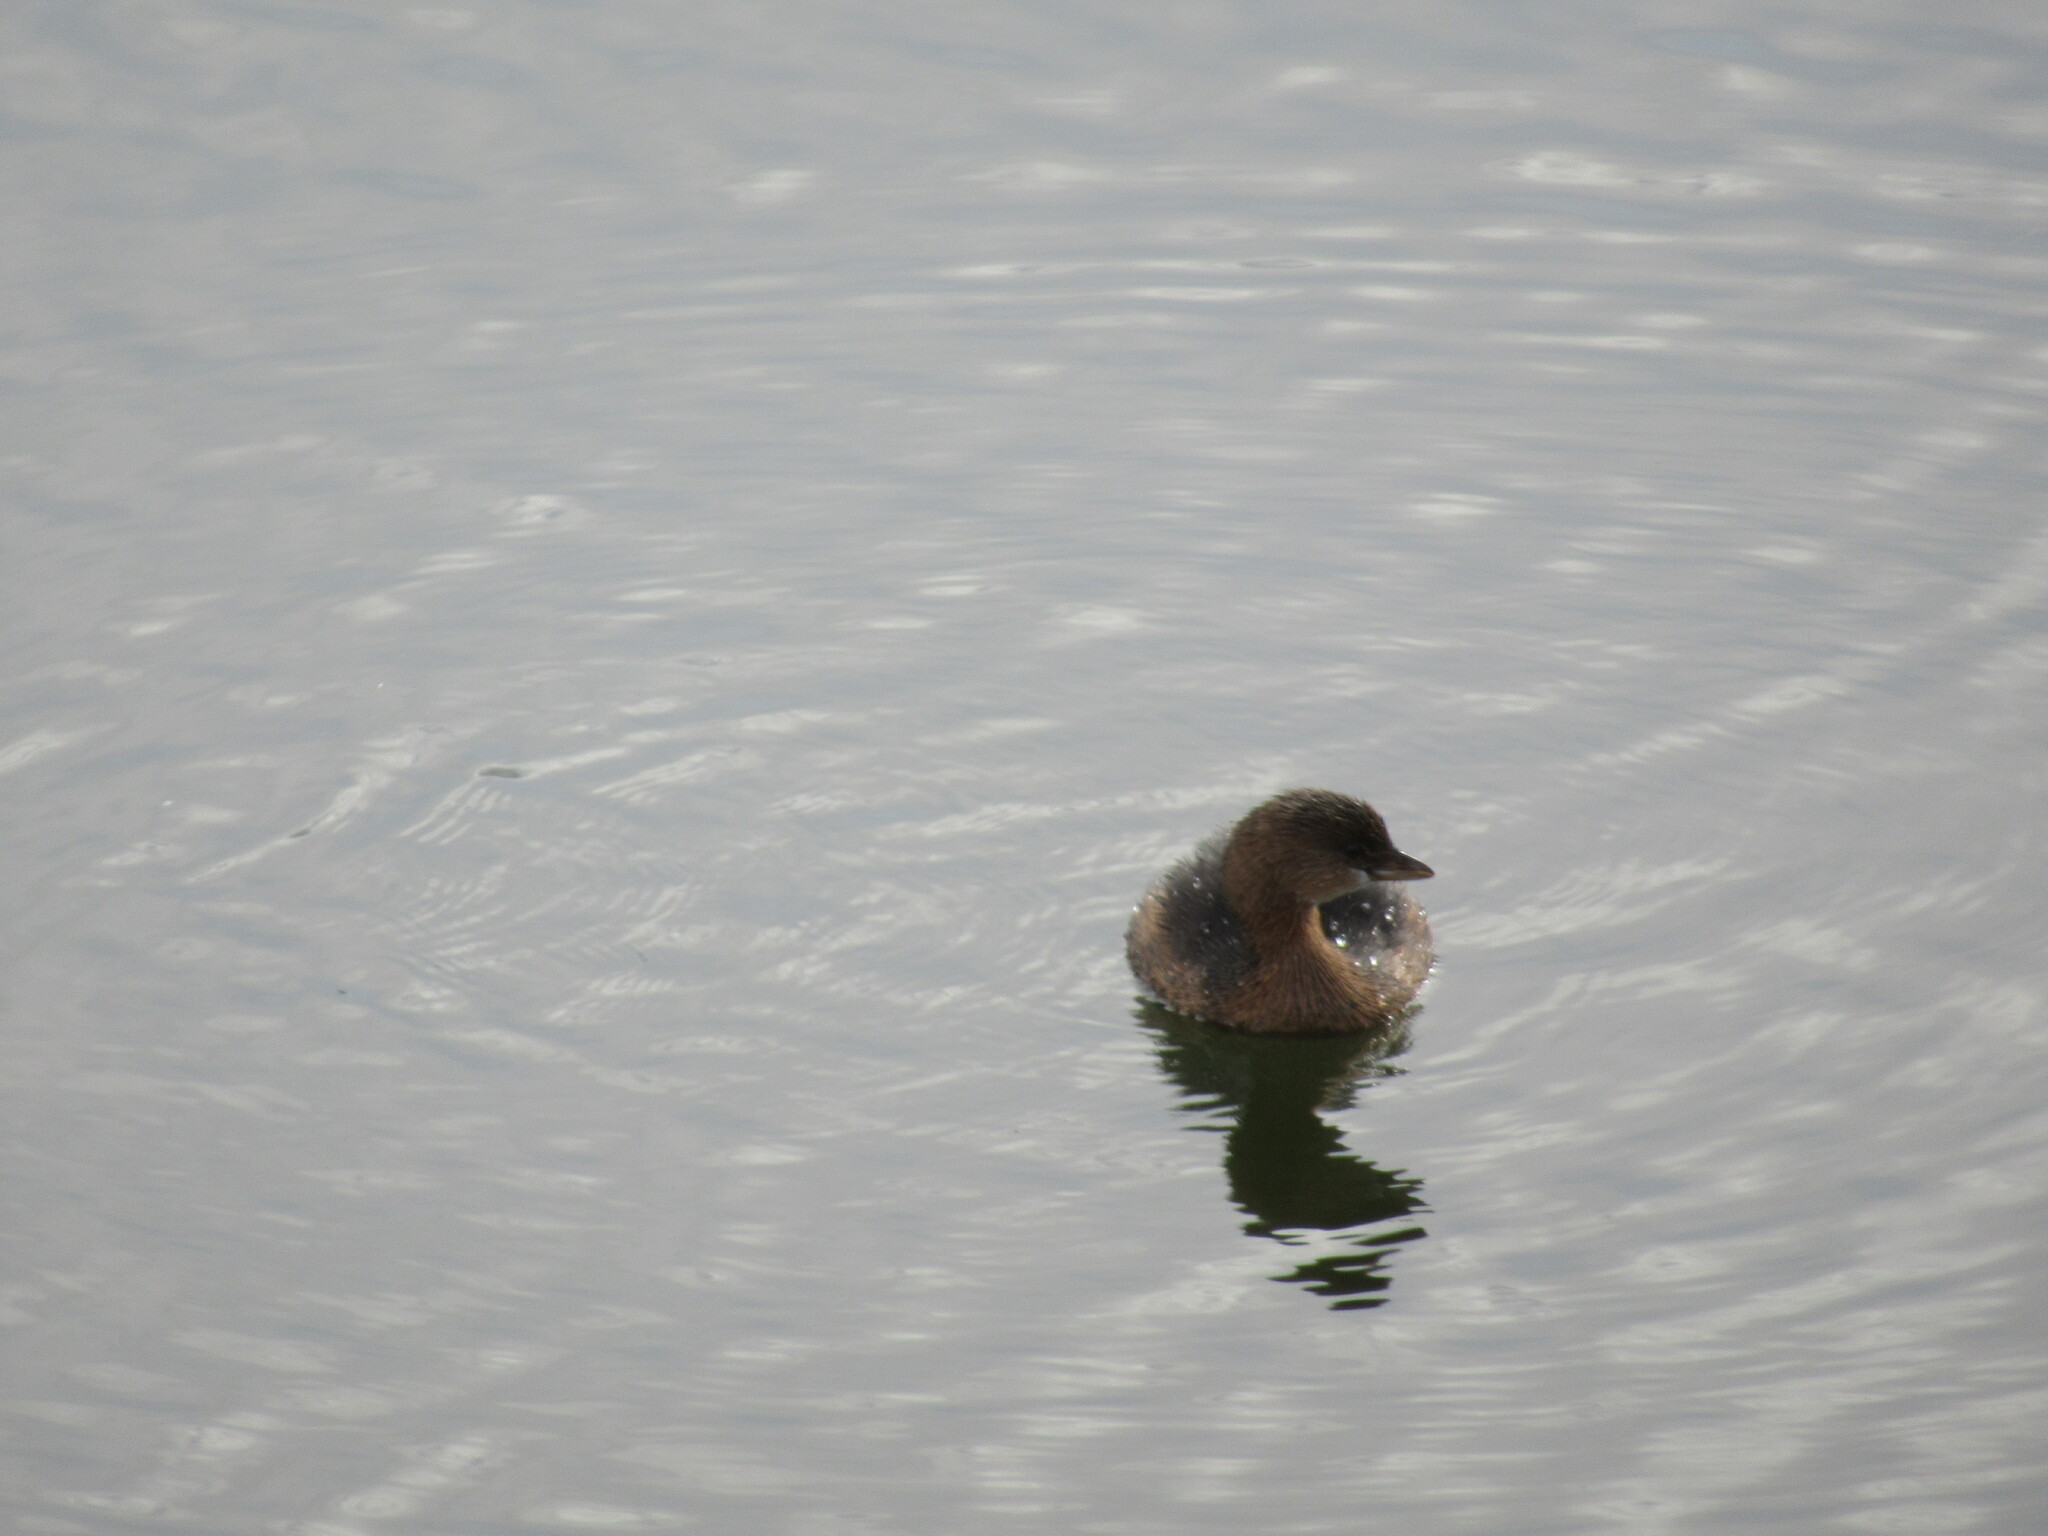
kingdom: Animalia
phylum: Chordata
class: Aves
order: Podicipediformes
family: Podicipedidae
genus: Podilymbus
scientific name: Podilymbus podiceps
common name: Pied-billed grebe
